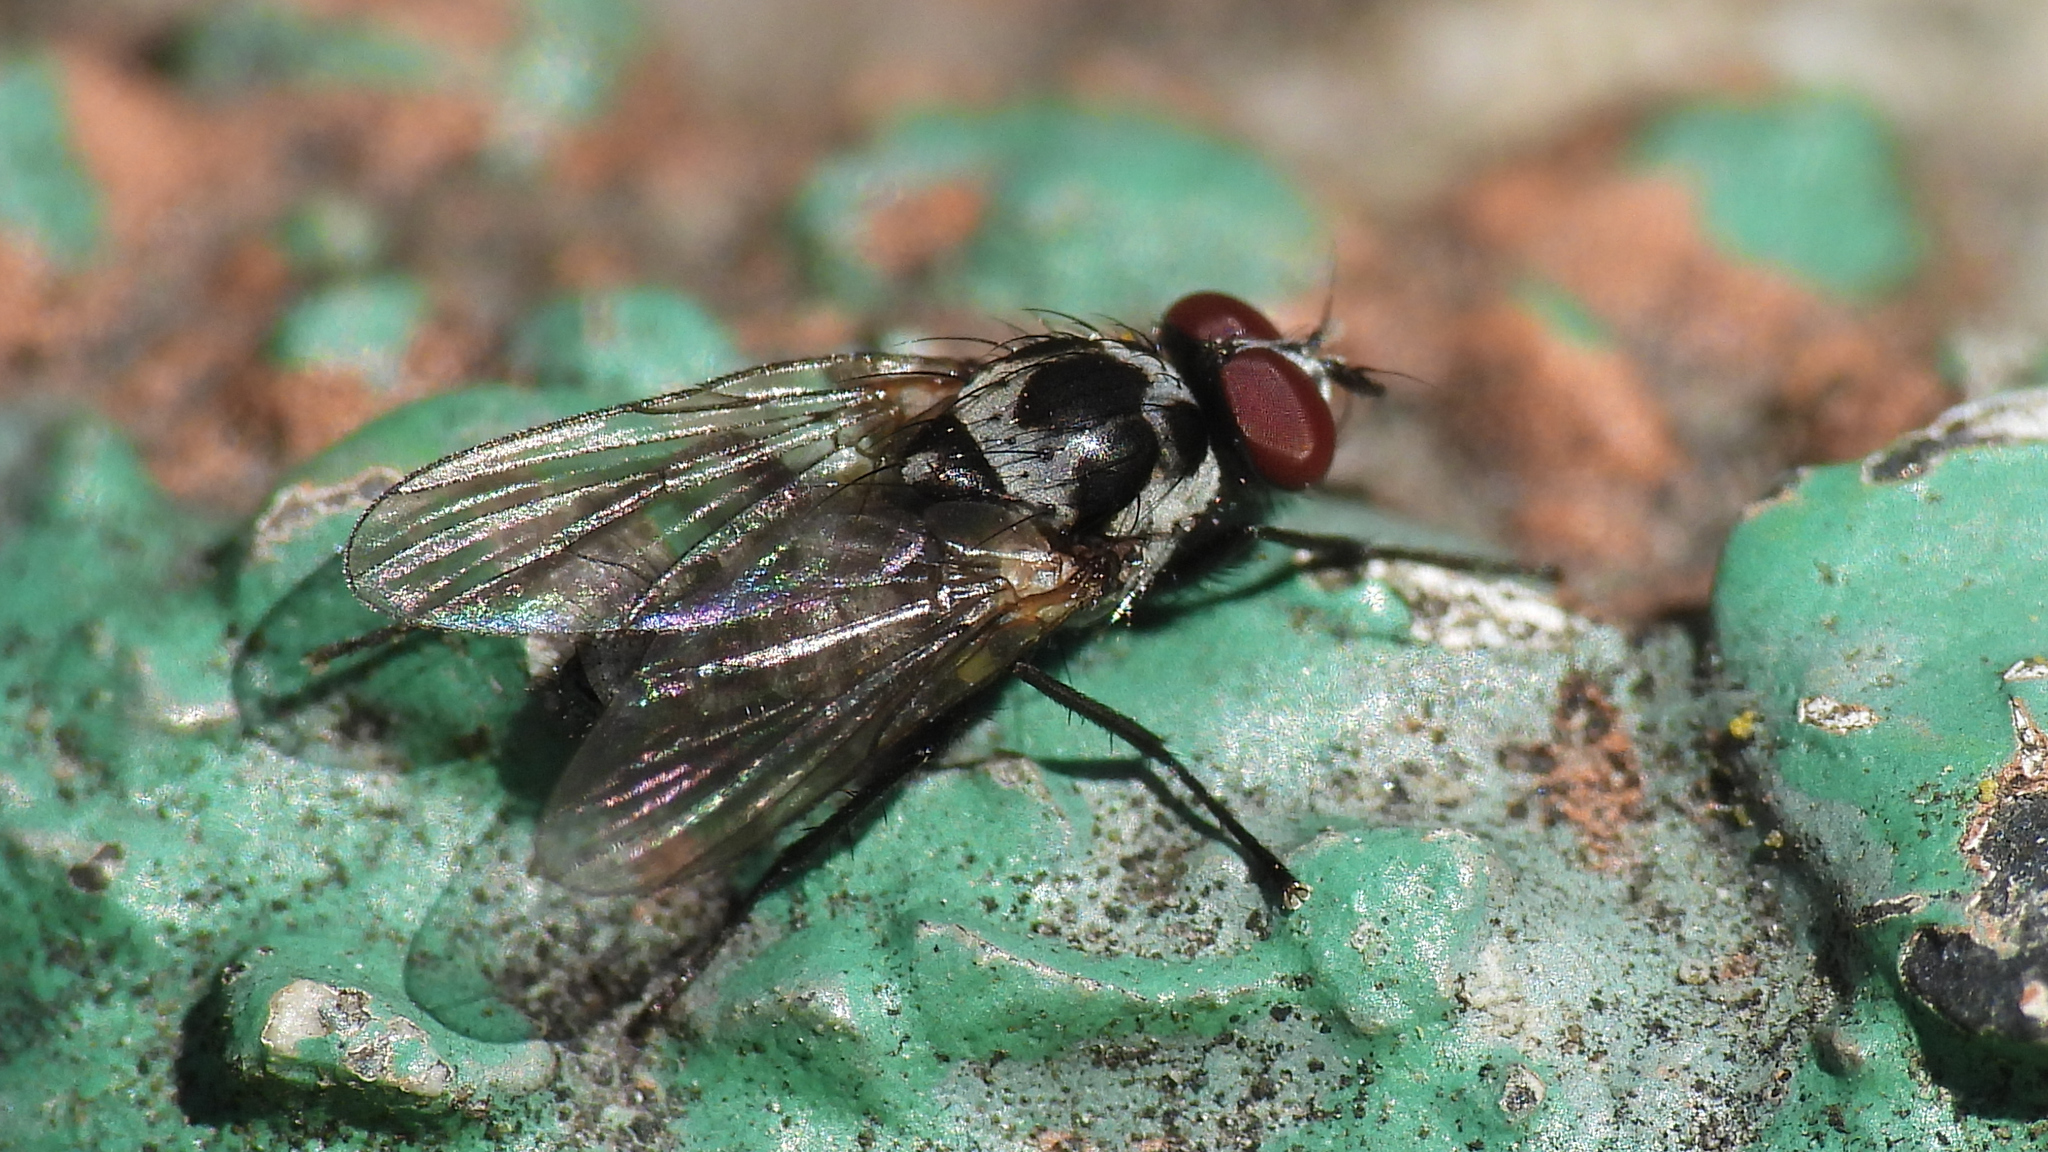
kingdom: Animalia
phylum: Arthropoda
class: Insecta
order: Diptera
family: Anthomyiidae
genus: Anthomyia
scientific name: Anthomyia procellaris
